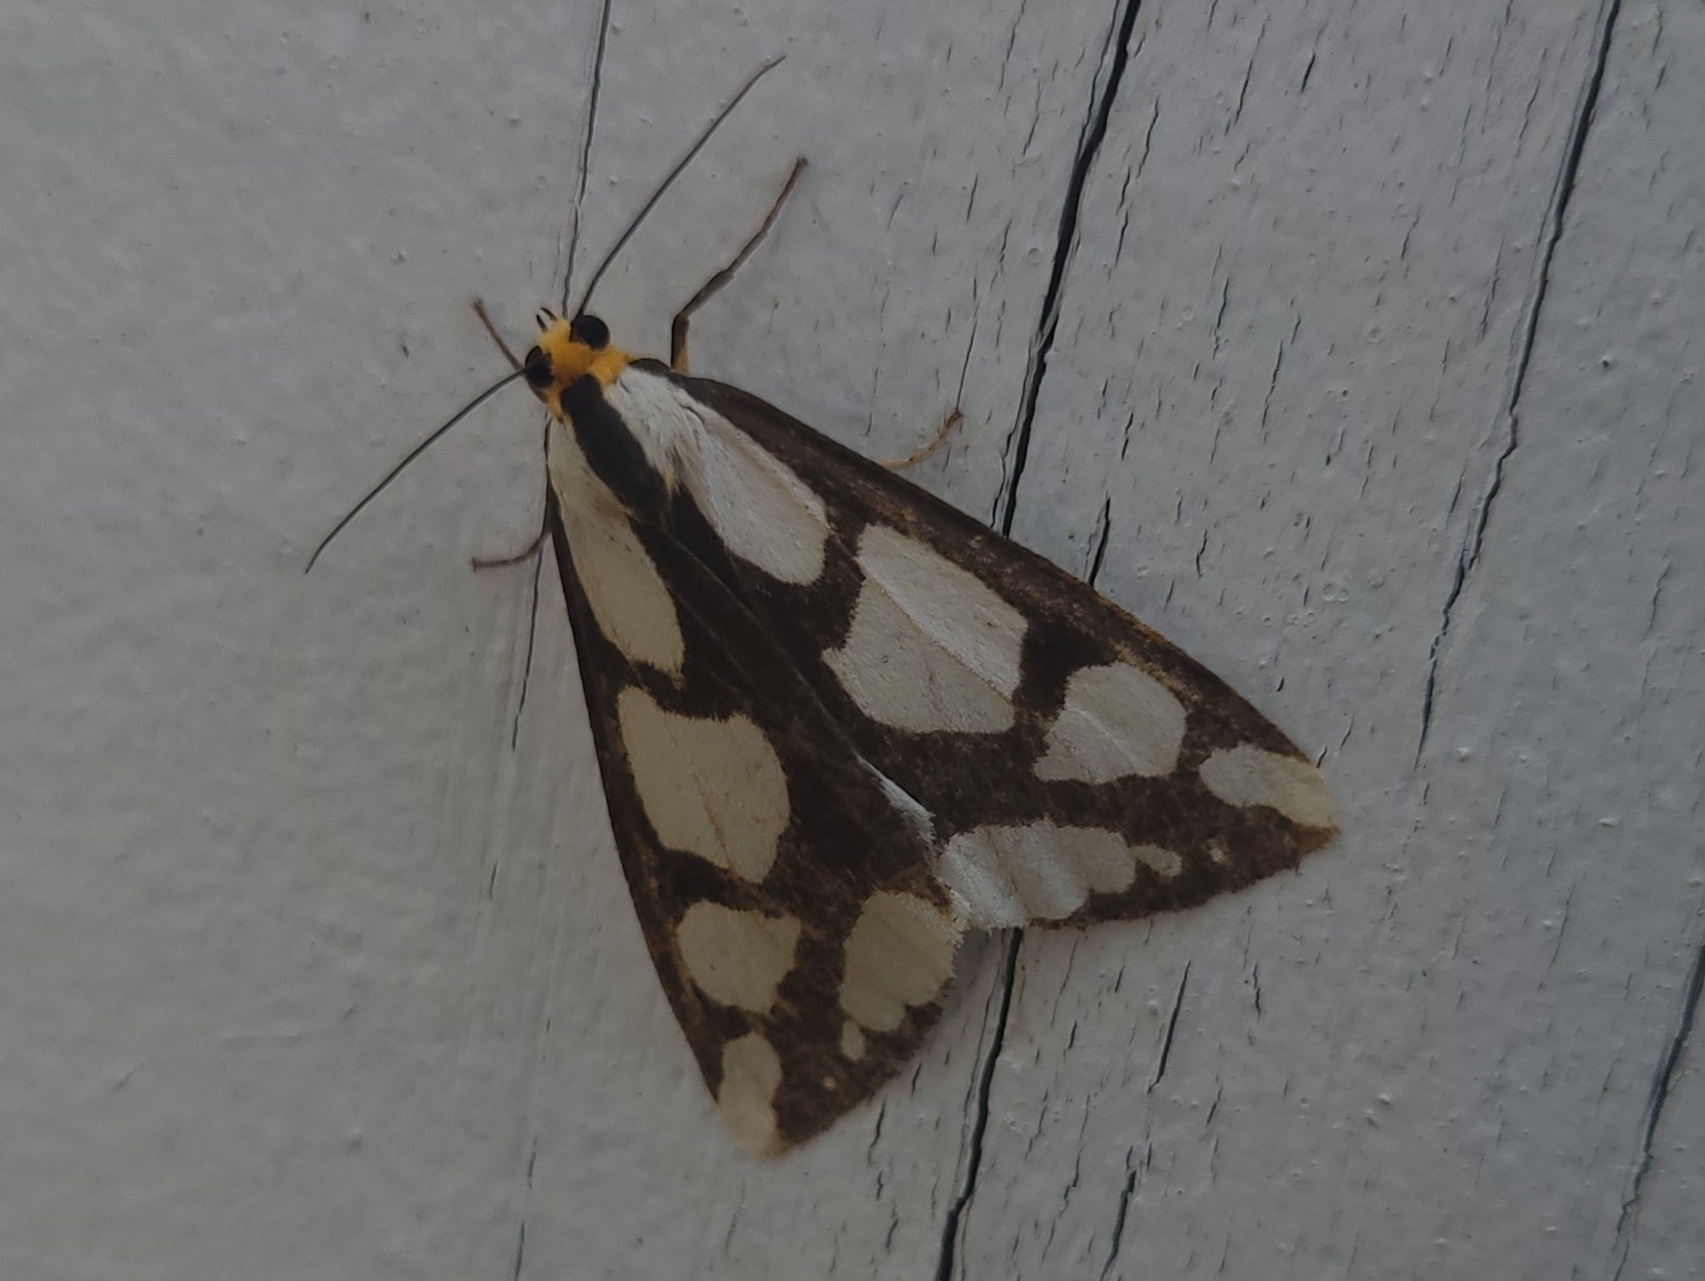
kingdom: Animalia
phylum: Arthropoda
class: Insecta
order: Lepidoptera
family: Erebidae
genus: Haploa
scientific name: Haploa lecontei
